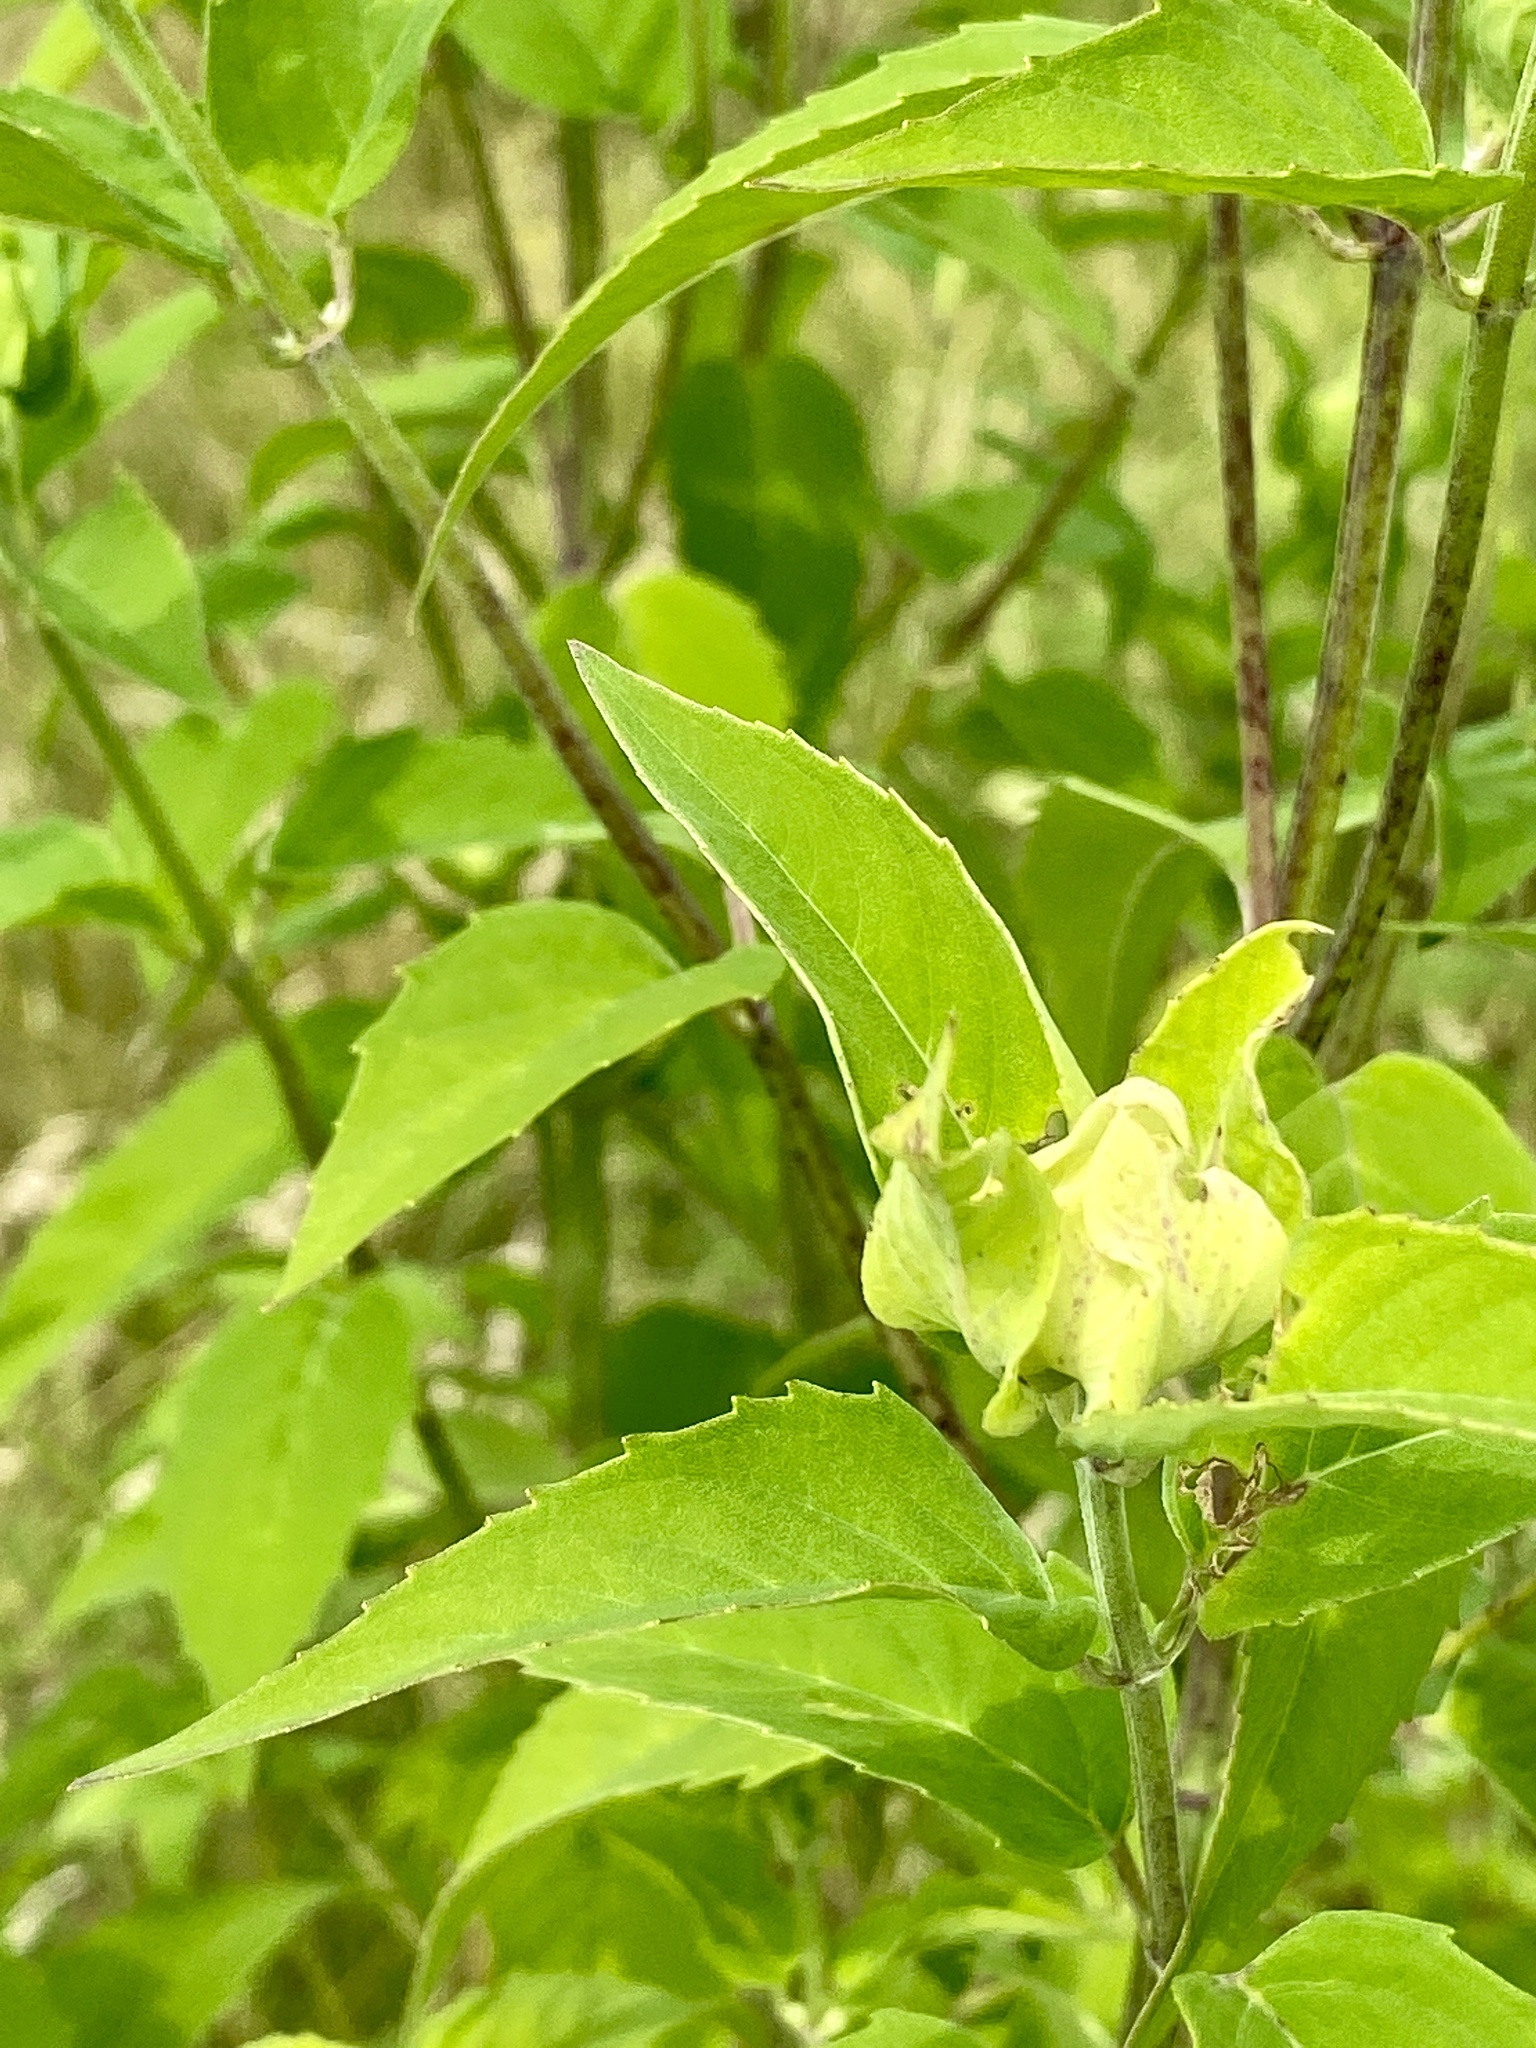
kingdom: Plantae
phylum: Tracheophyta
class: Magnoliopsida
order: Lamiales
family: Lamiaceae
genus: Monarda
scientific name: Monarda fistulosa
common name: Purple beebalm
